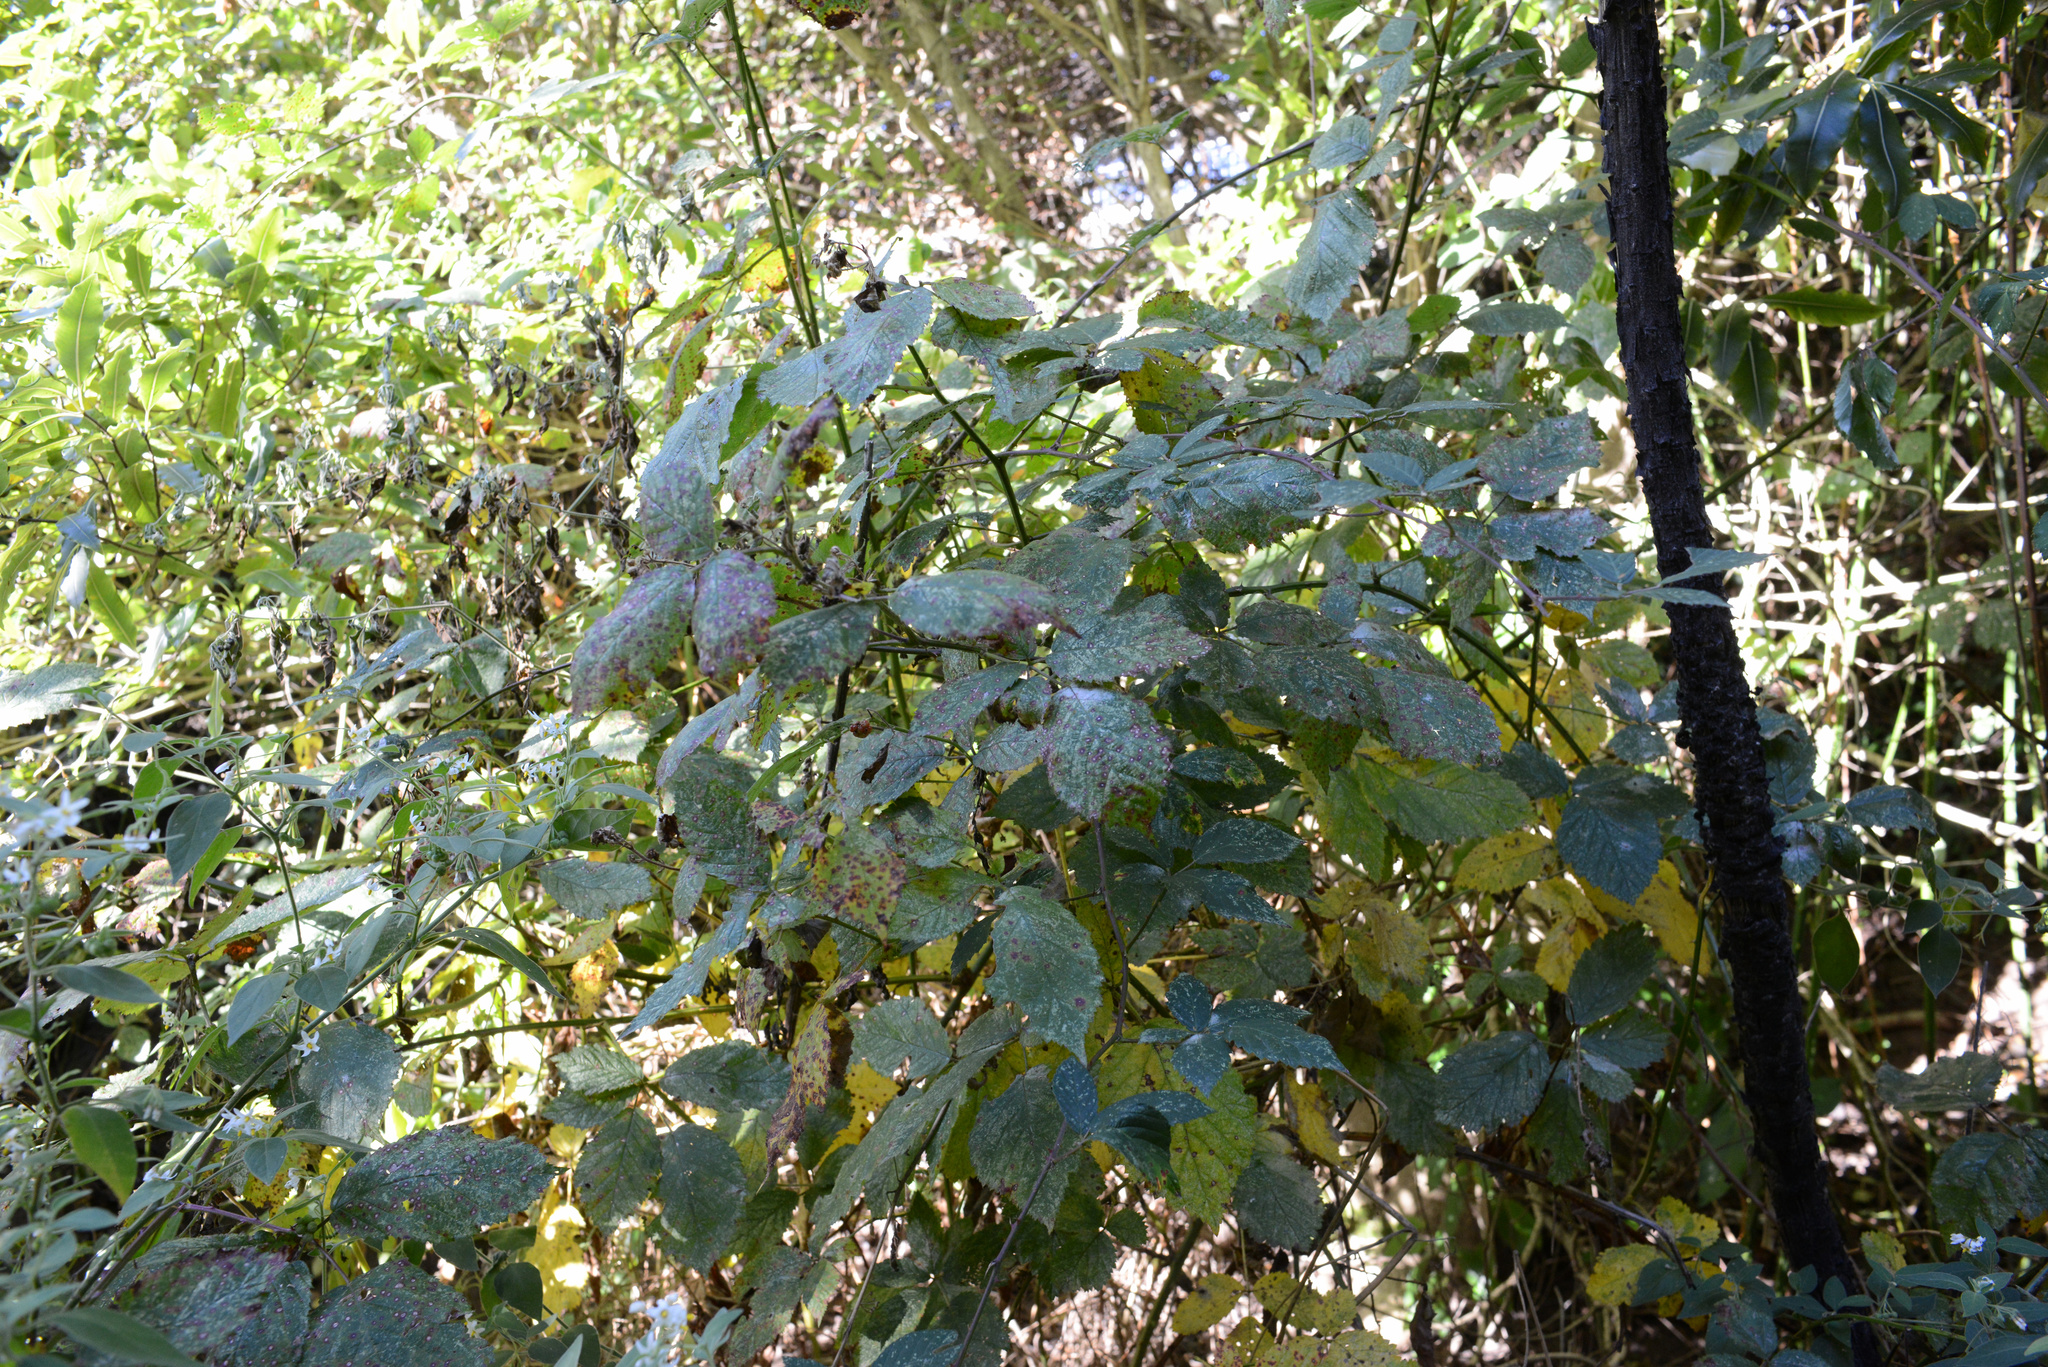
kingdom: Plantae
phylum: Tracheophyta
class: Magnoliopsida
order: Rosales
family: Rosaceae
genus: Rubus
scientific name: Rubus
